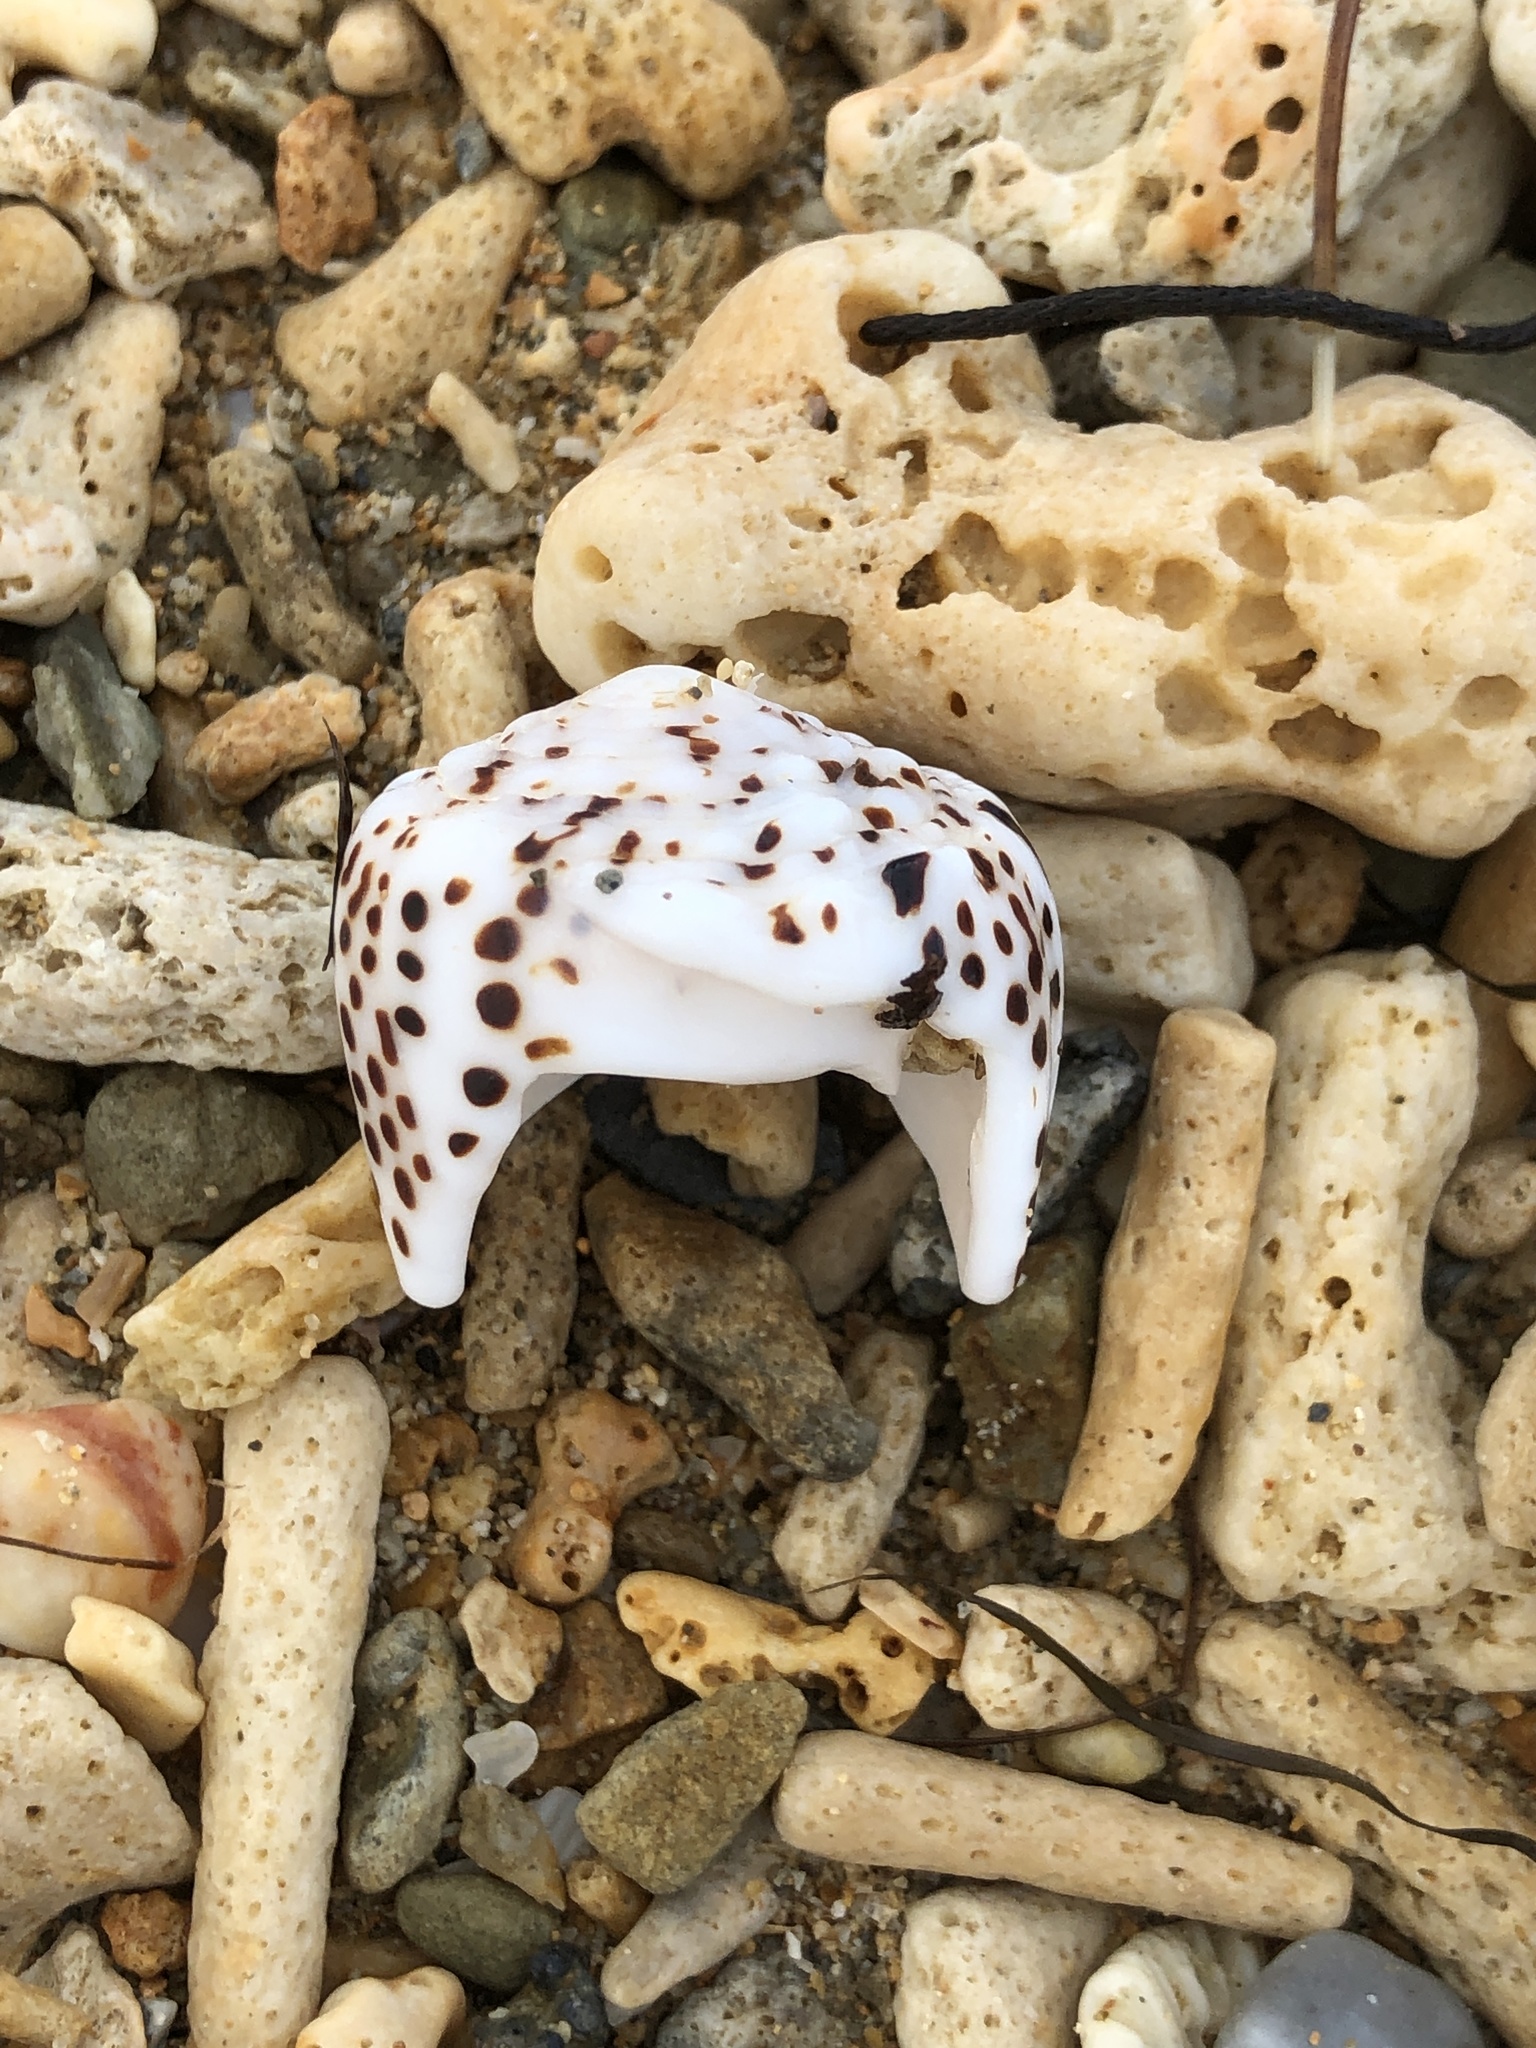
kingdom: Animalia
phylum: Mollusca
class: Gastropoda
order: Neogastropoda
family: Conidae
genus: Conus
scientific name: Conus pulicarius
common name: Flea-bite cone
